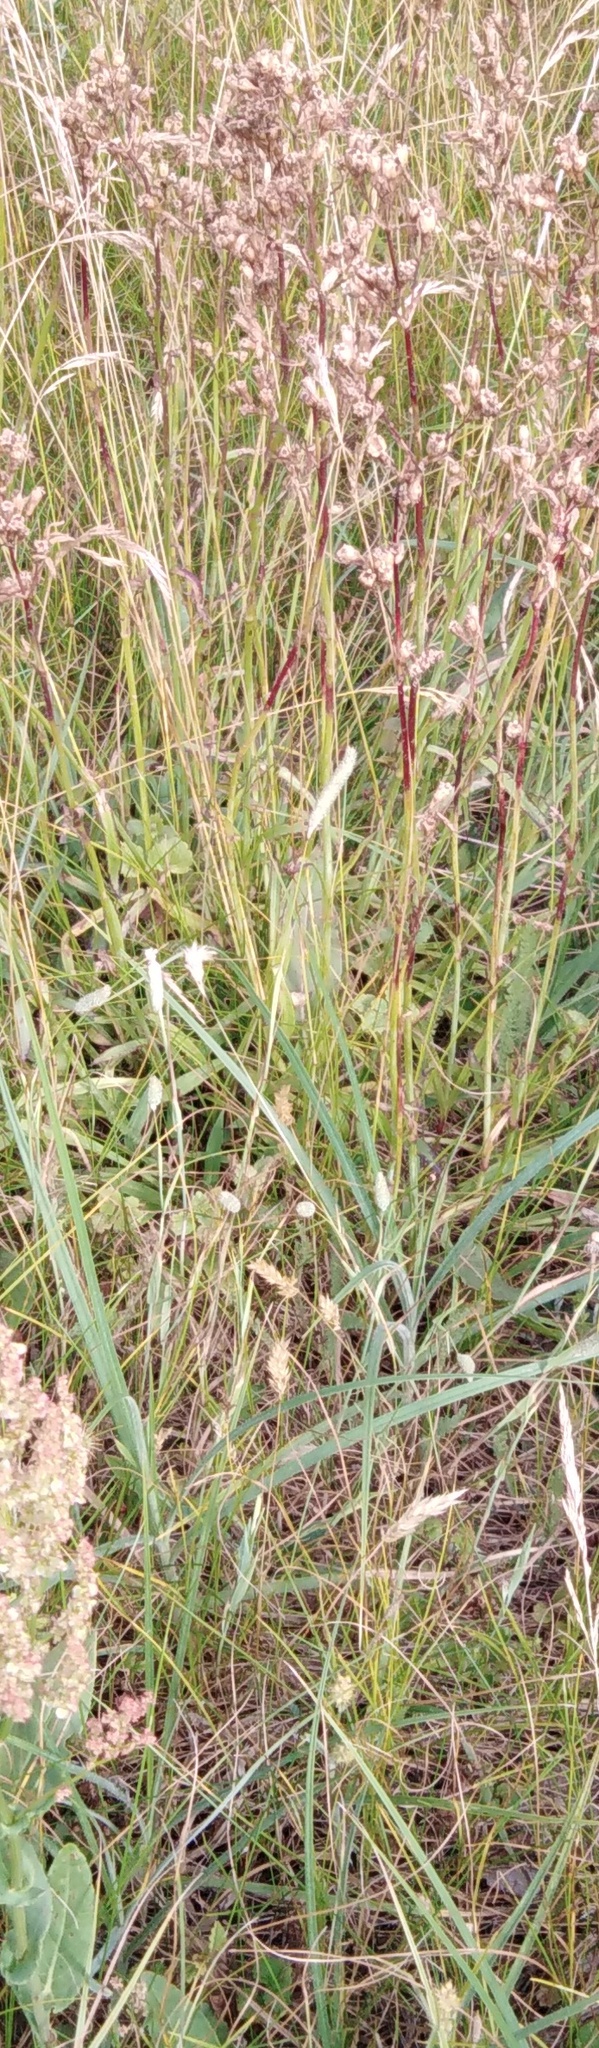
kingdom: Plantae
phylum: Tracheophyta
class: Magnoliopsida
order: Caryophyllales
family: Caryophyllaceae
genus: Viscaria
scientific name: Viscaria vulgaris
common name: Clammy campion
